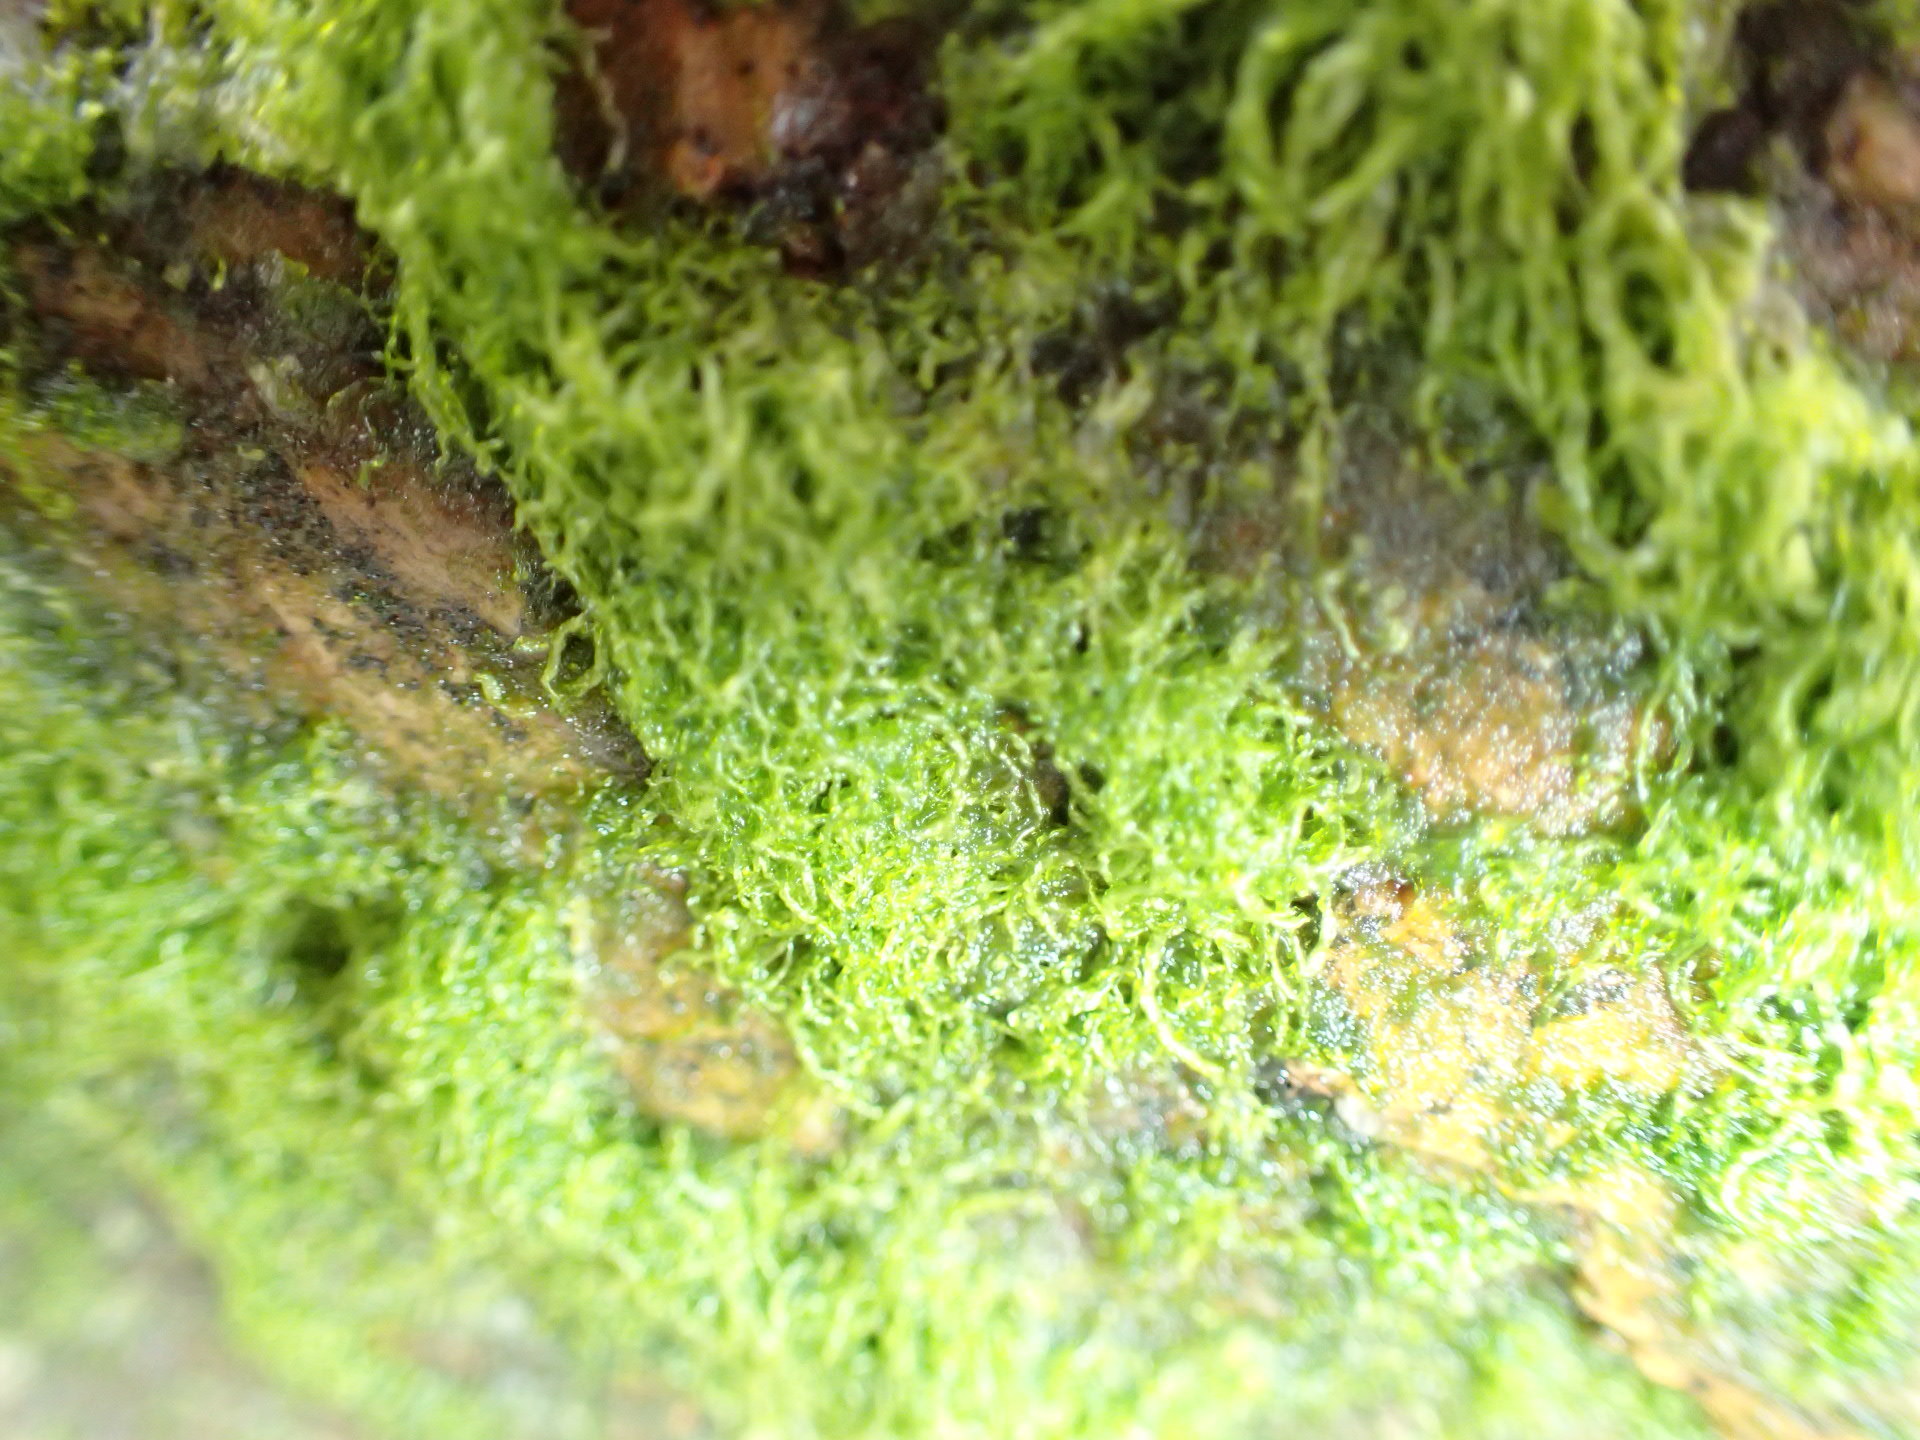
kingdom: Plantae
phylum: Chlorophyta
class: Ulvophyceae
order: Ulvales
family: Ulvaceae
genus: Ulva
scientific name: Ulva intestinalis
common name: Gut weed
